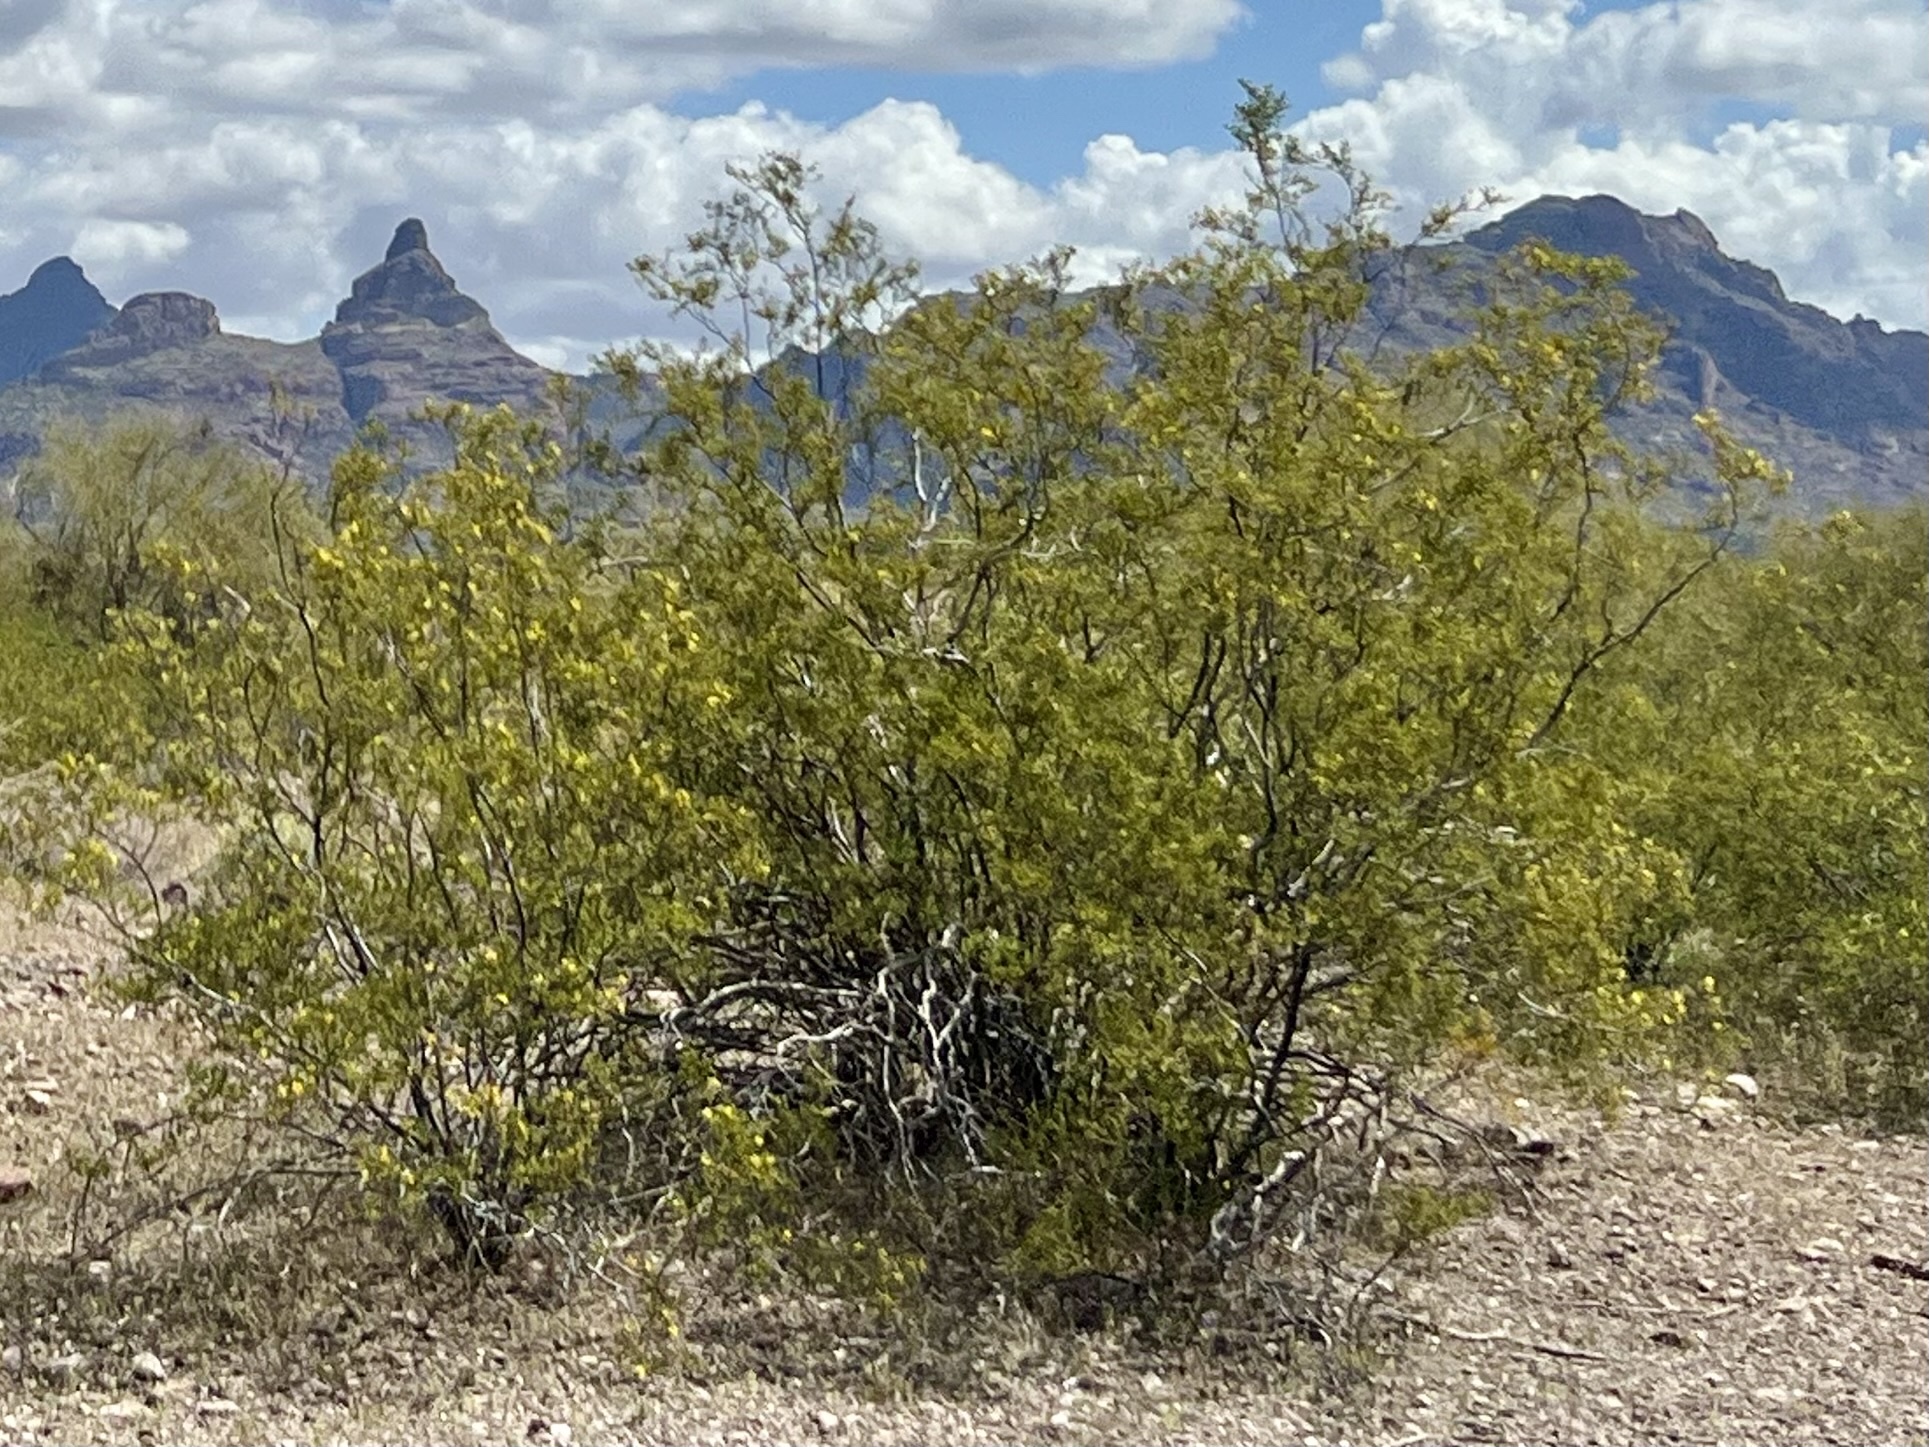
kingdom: Plantae
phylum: Tracheophyta
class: Magnoliopsida
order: Zygophyllales
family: Zygophyllaceae
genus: Larrea
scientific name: Larrea tridentata
